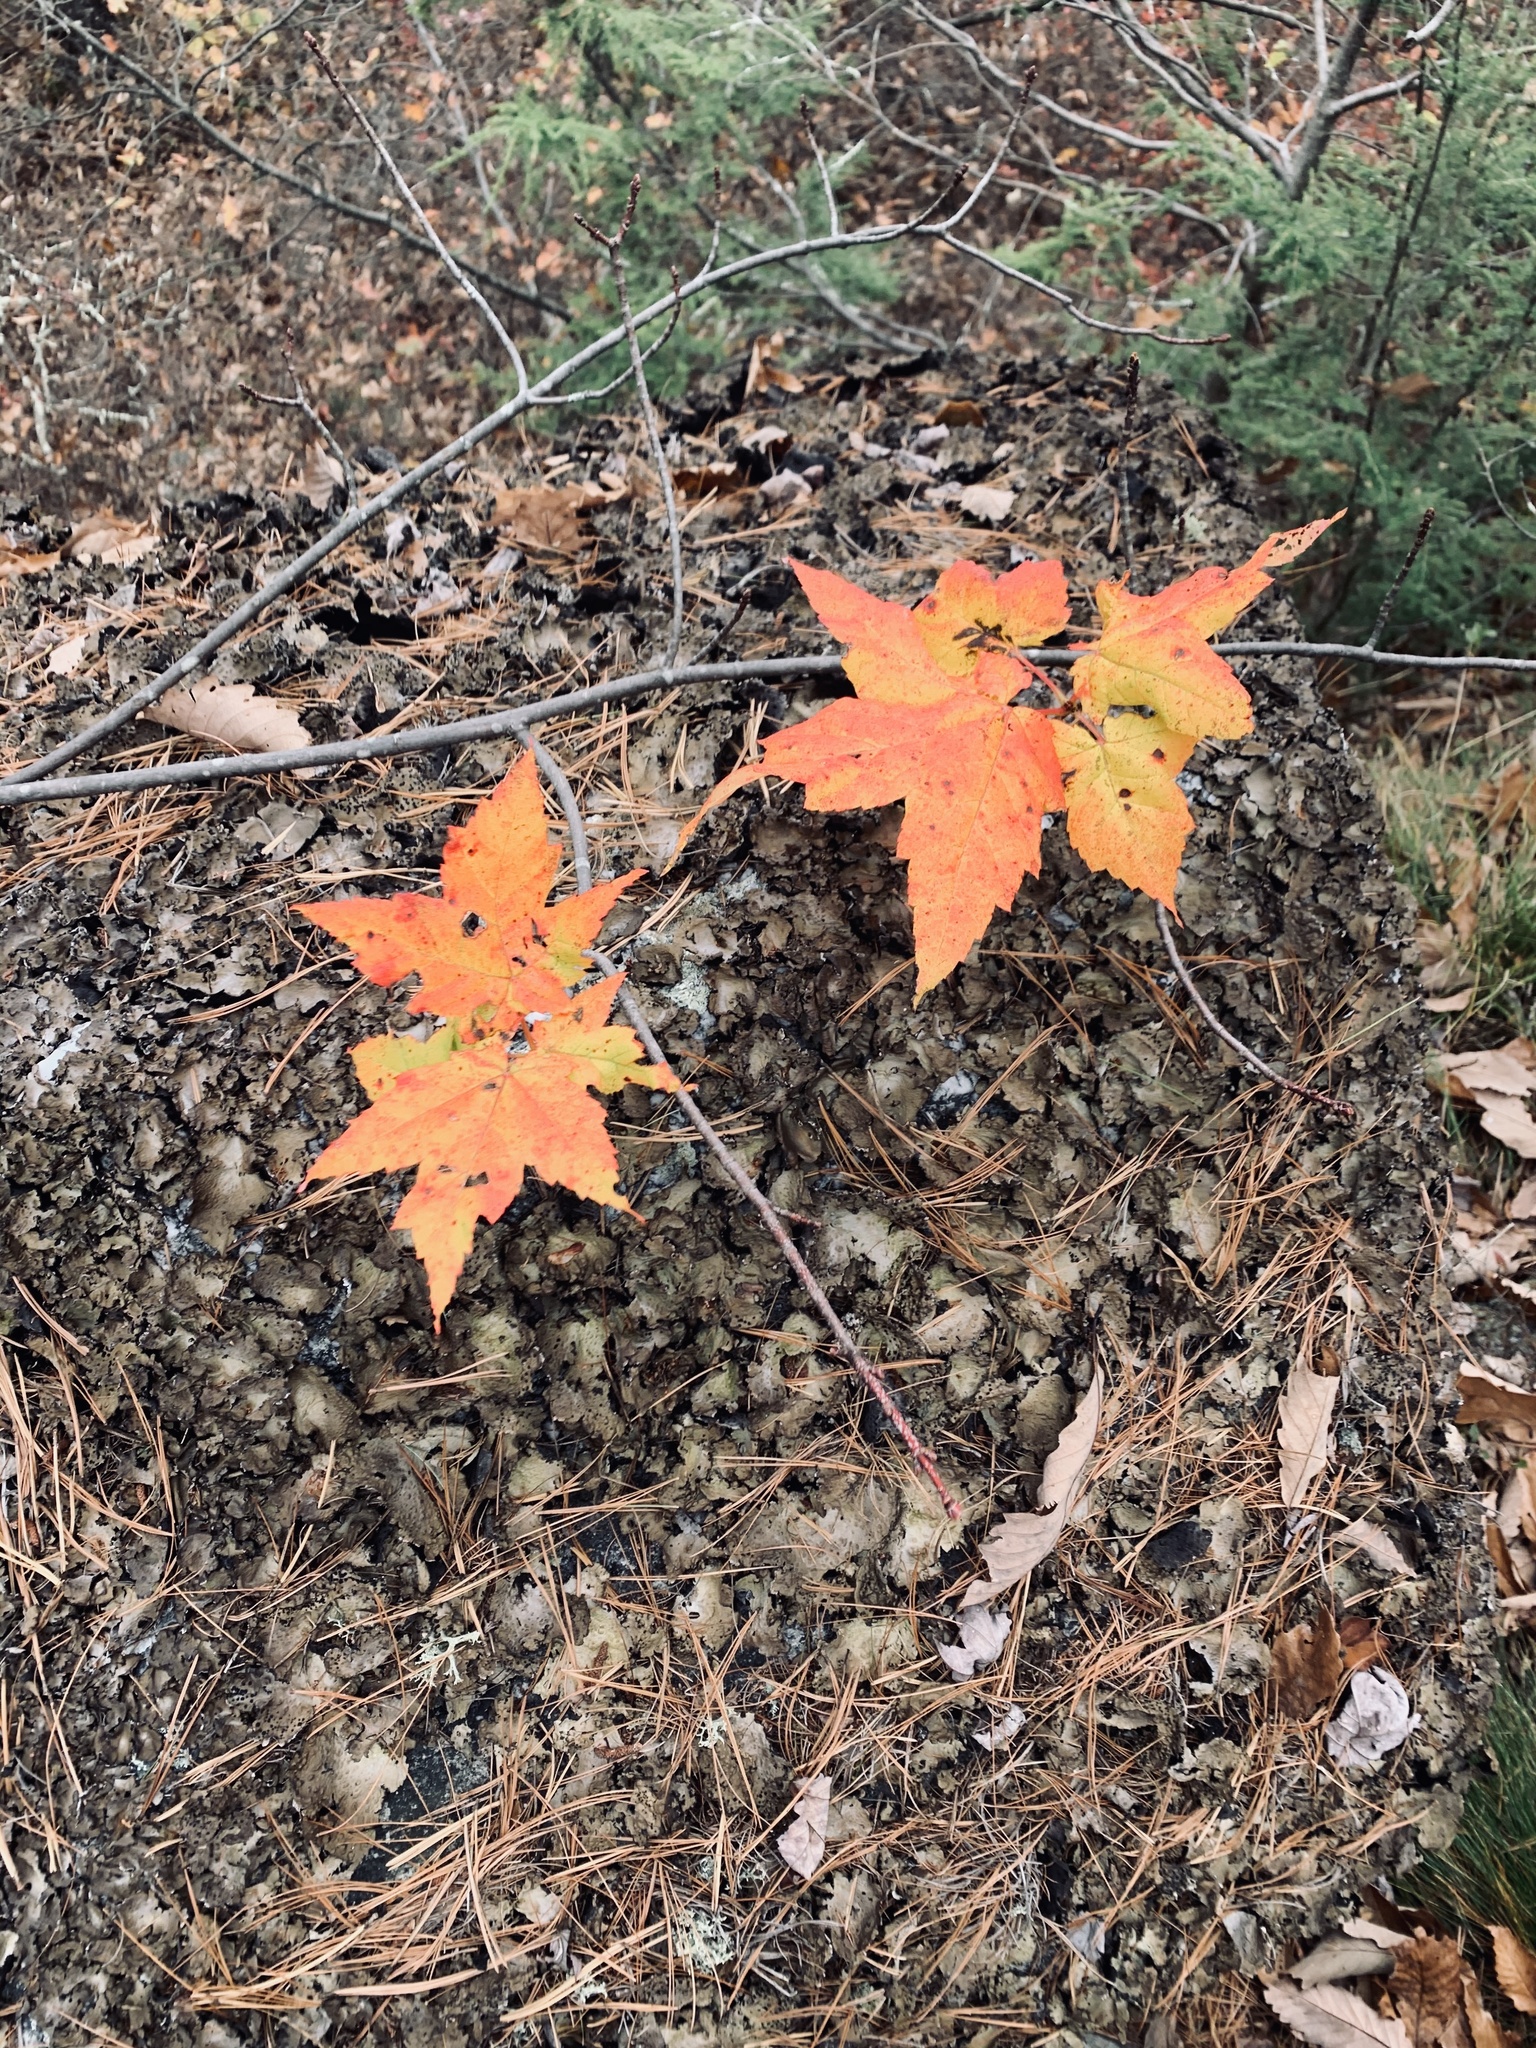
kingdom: Plantae
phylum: Tracheophyta
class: Magnoliopsida
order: Sapindales
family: Sapindaceae
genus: Acer
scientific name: Acer rubrum
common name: Red maple
